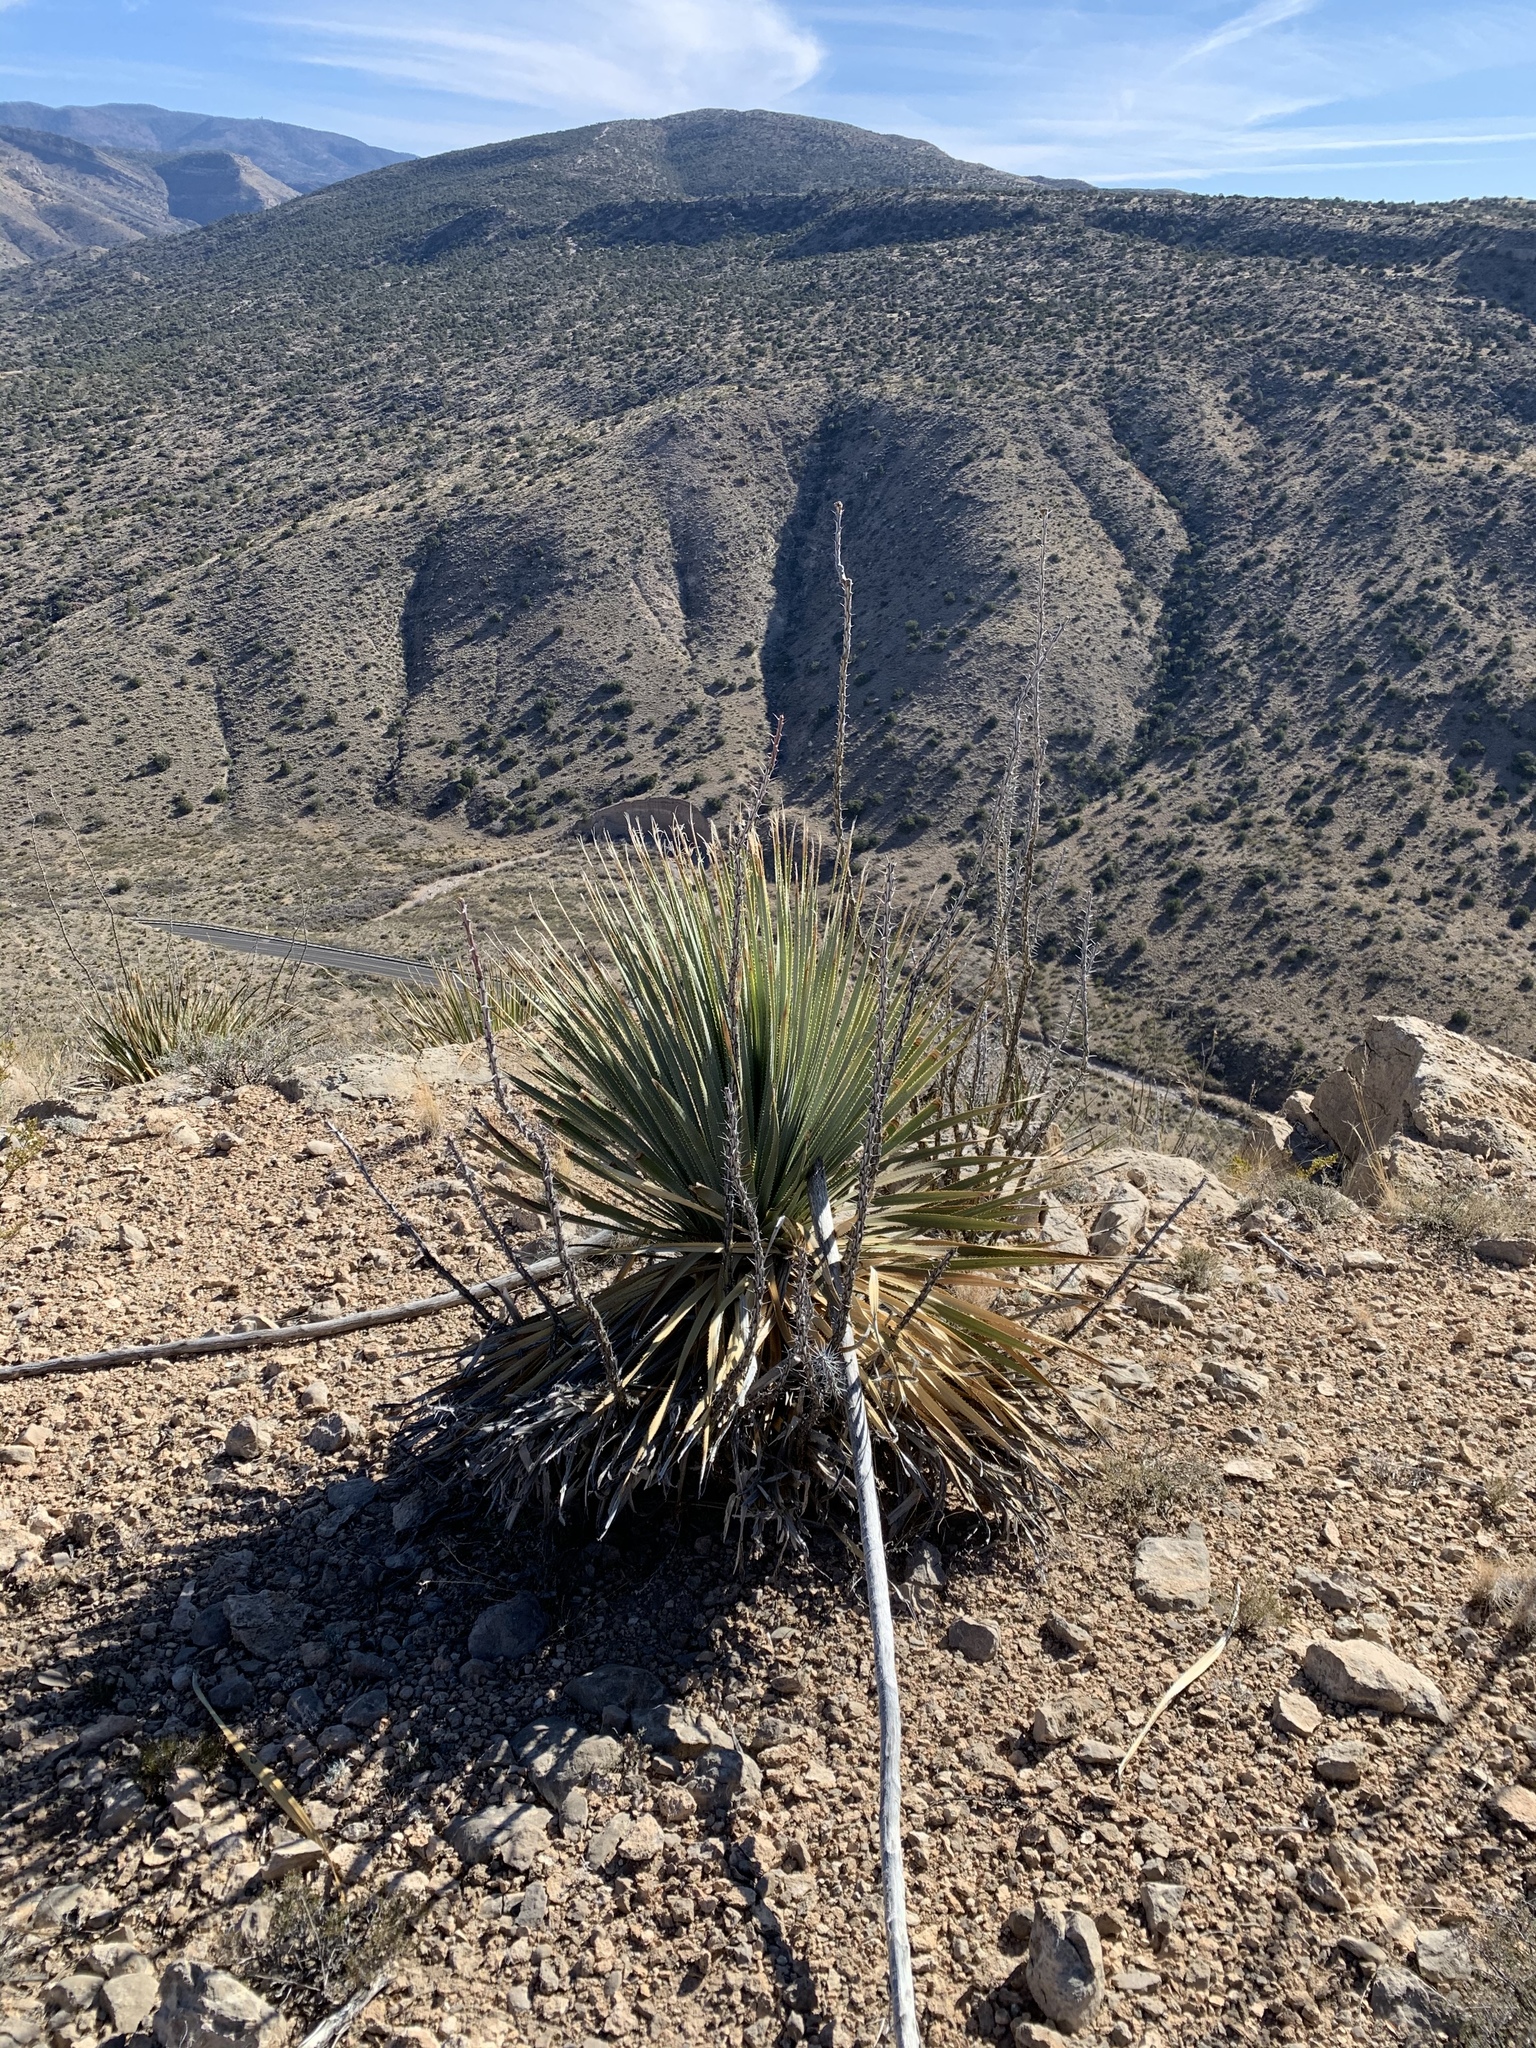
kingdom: Plantae
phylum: Tracheophyta
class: Liliopsida
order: Asparagales
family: Asparagaceae
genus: Dasylirion
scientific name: Dasylirion wheeleri
